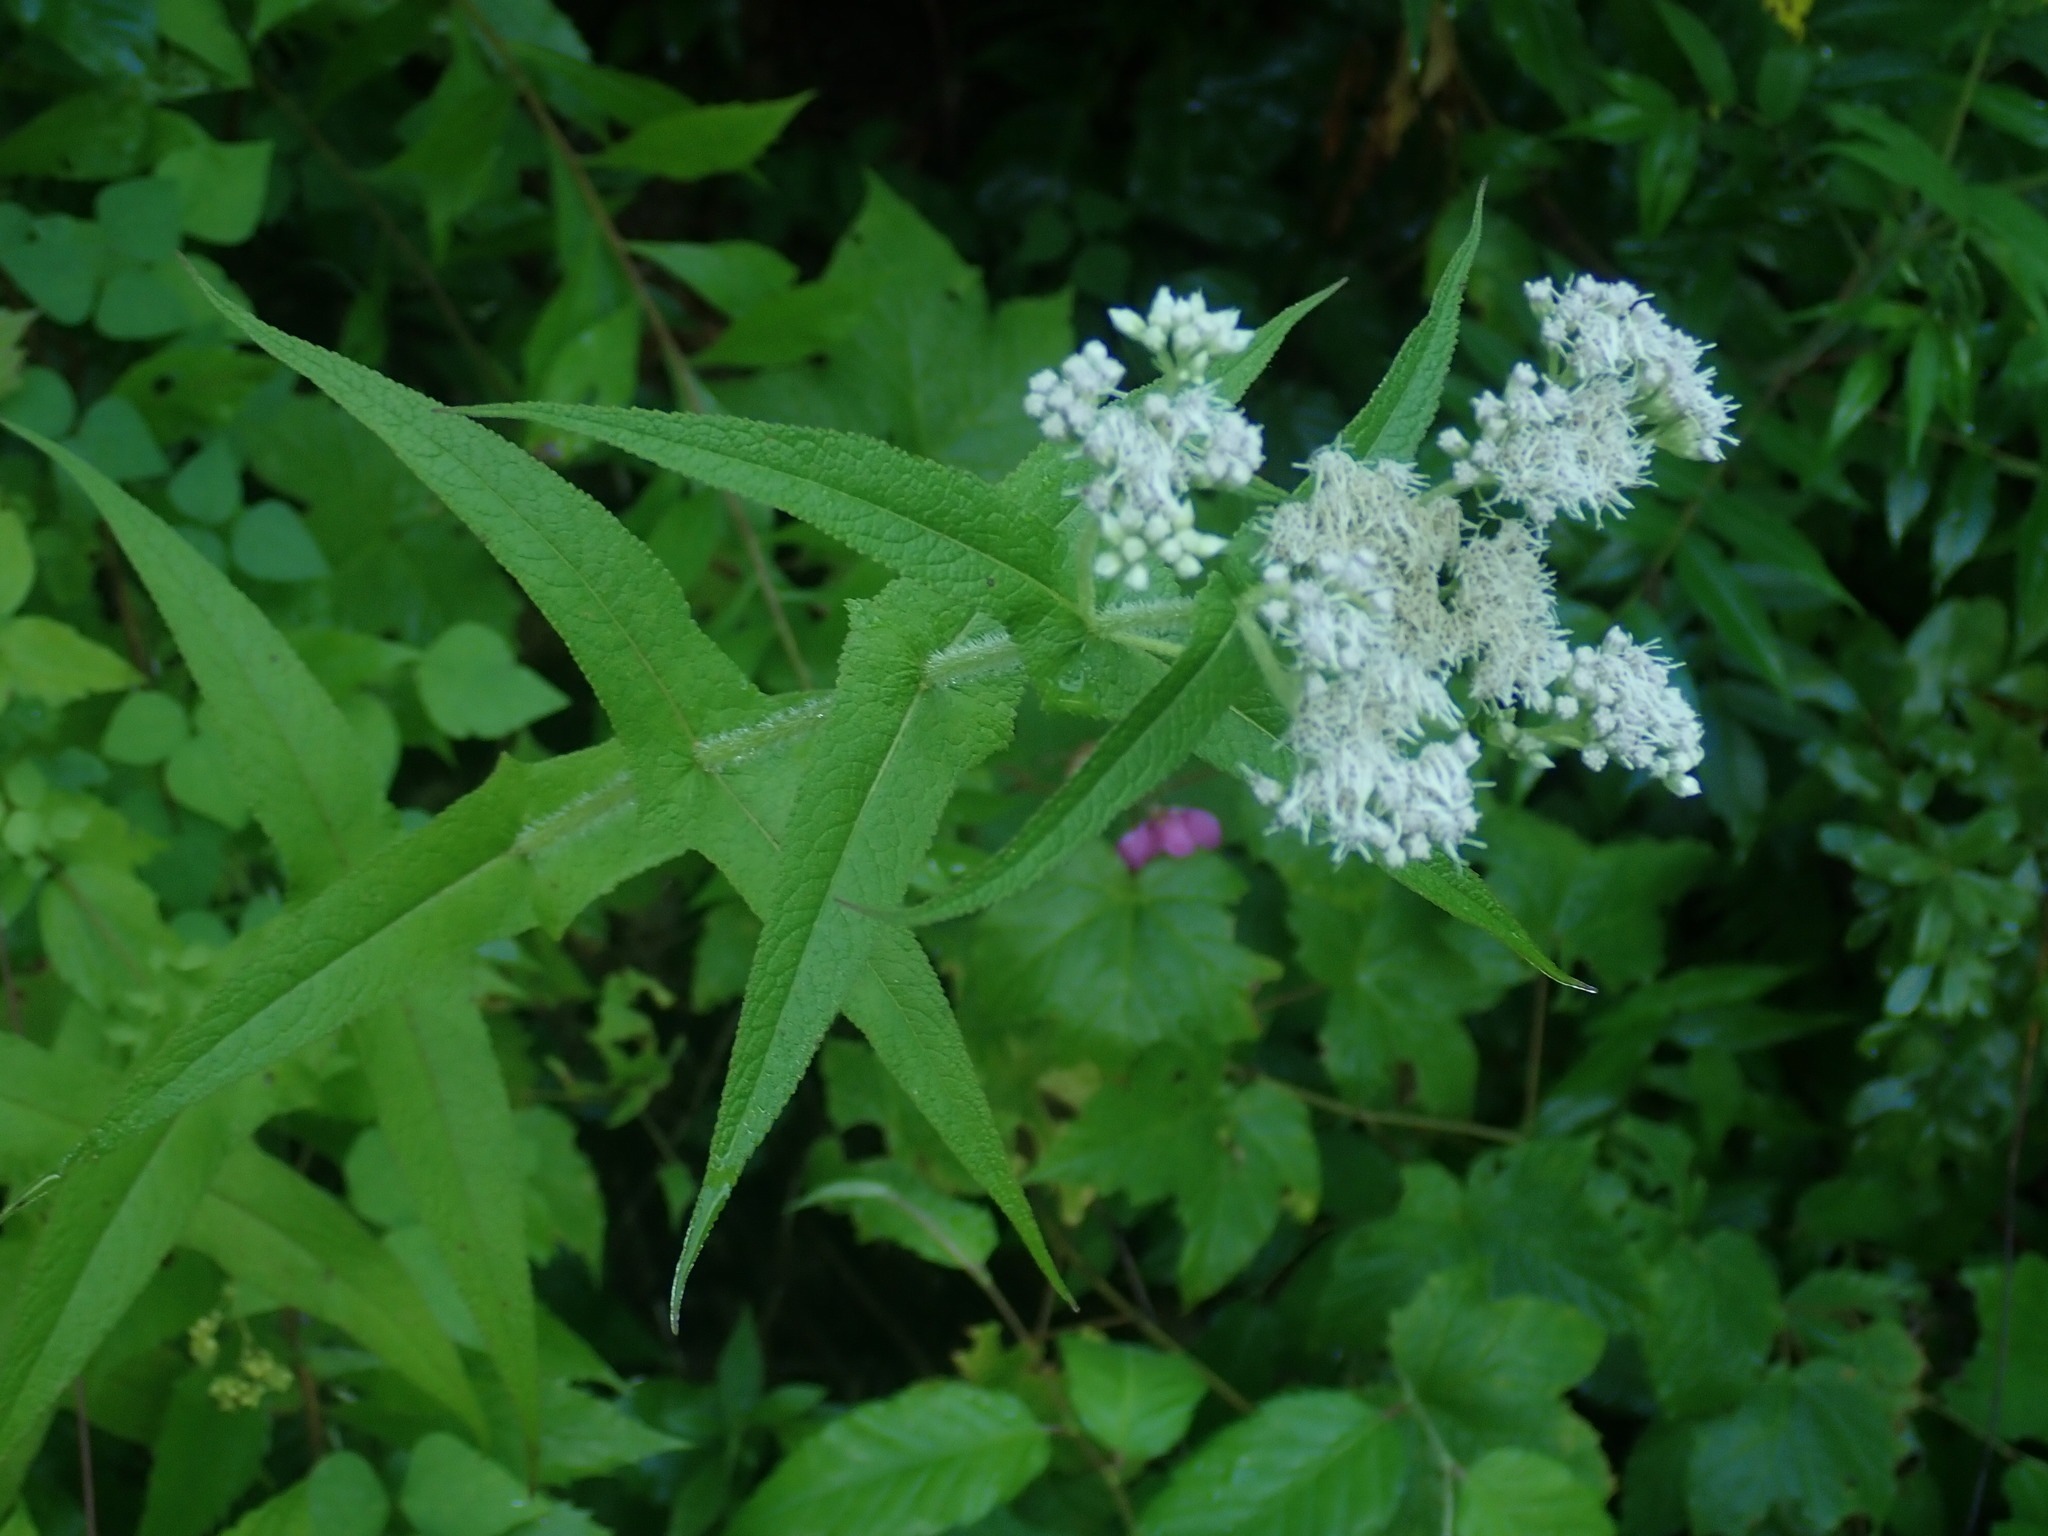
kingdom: Plantae
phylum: Tracheophyta
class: Magnoliopsida
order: Asterales
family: Asteraceae
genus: Eupatorium
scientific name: Eupatorium perfoliatum
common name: Boneset
